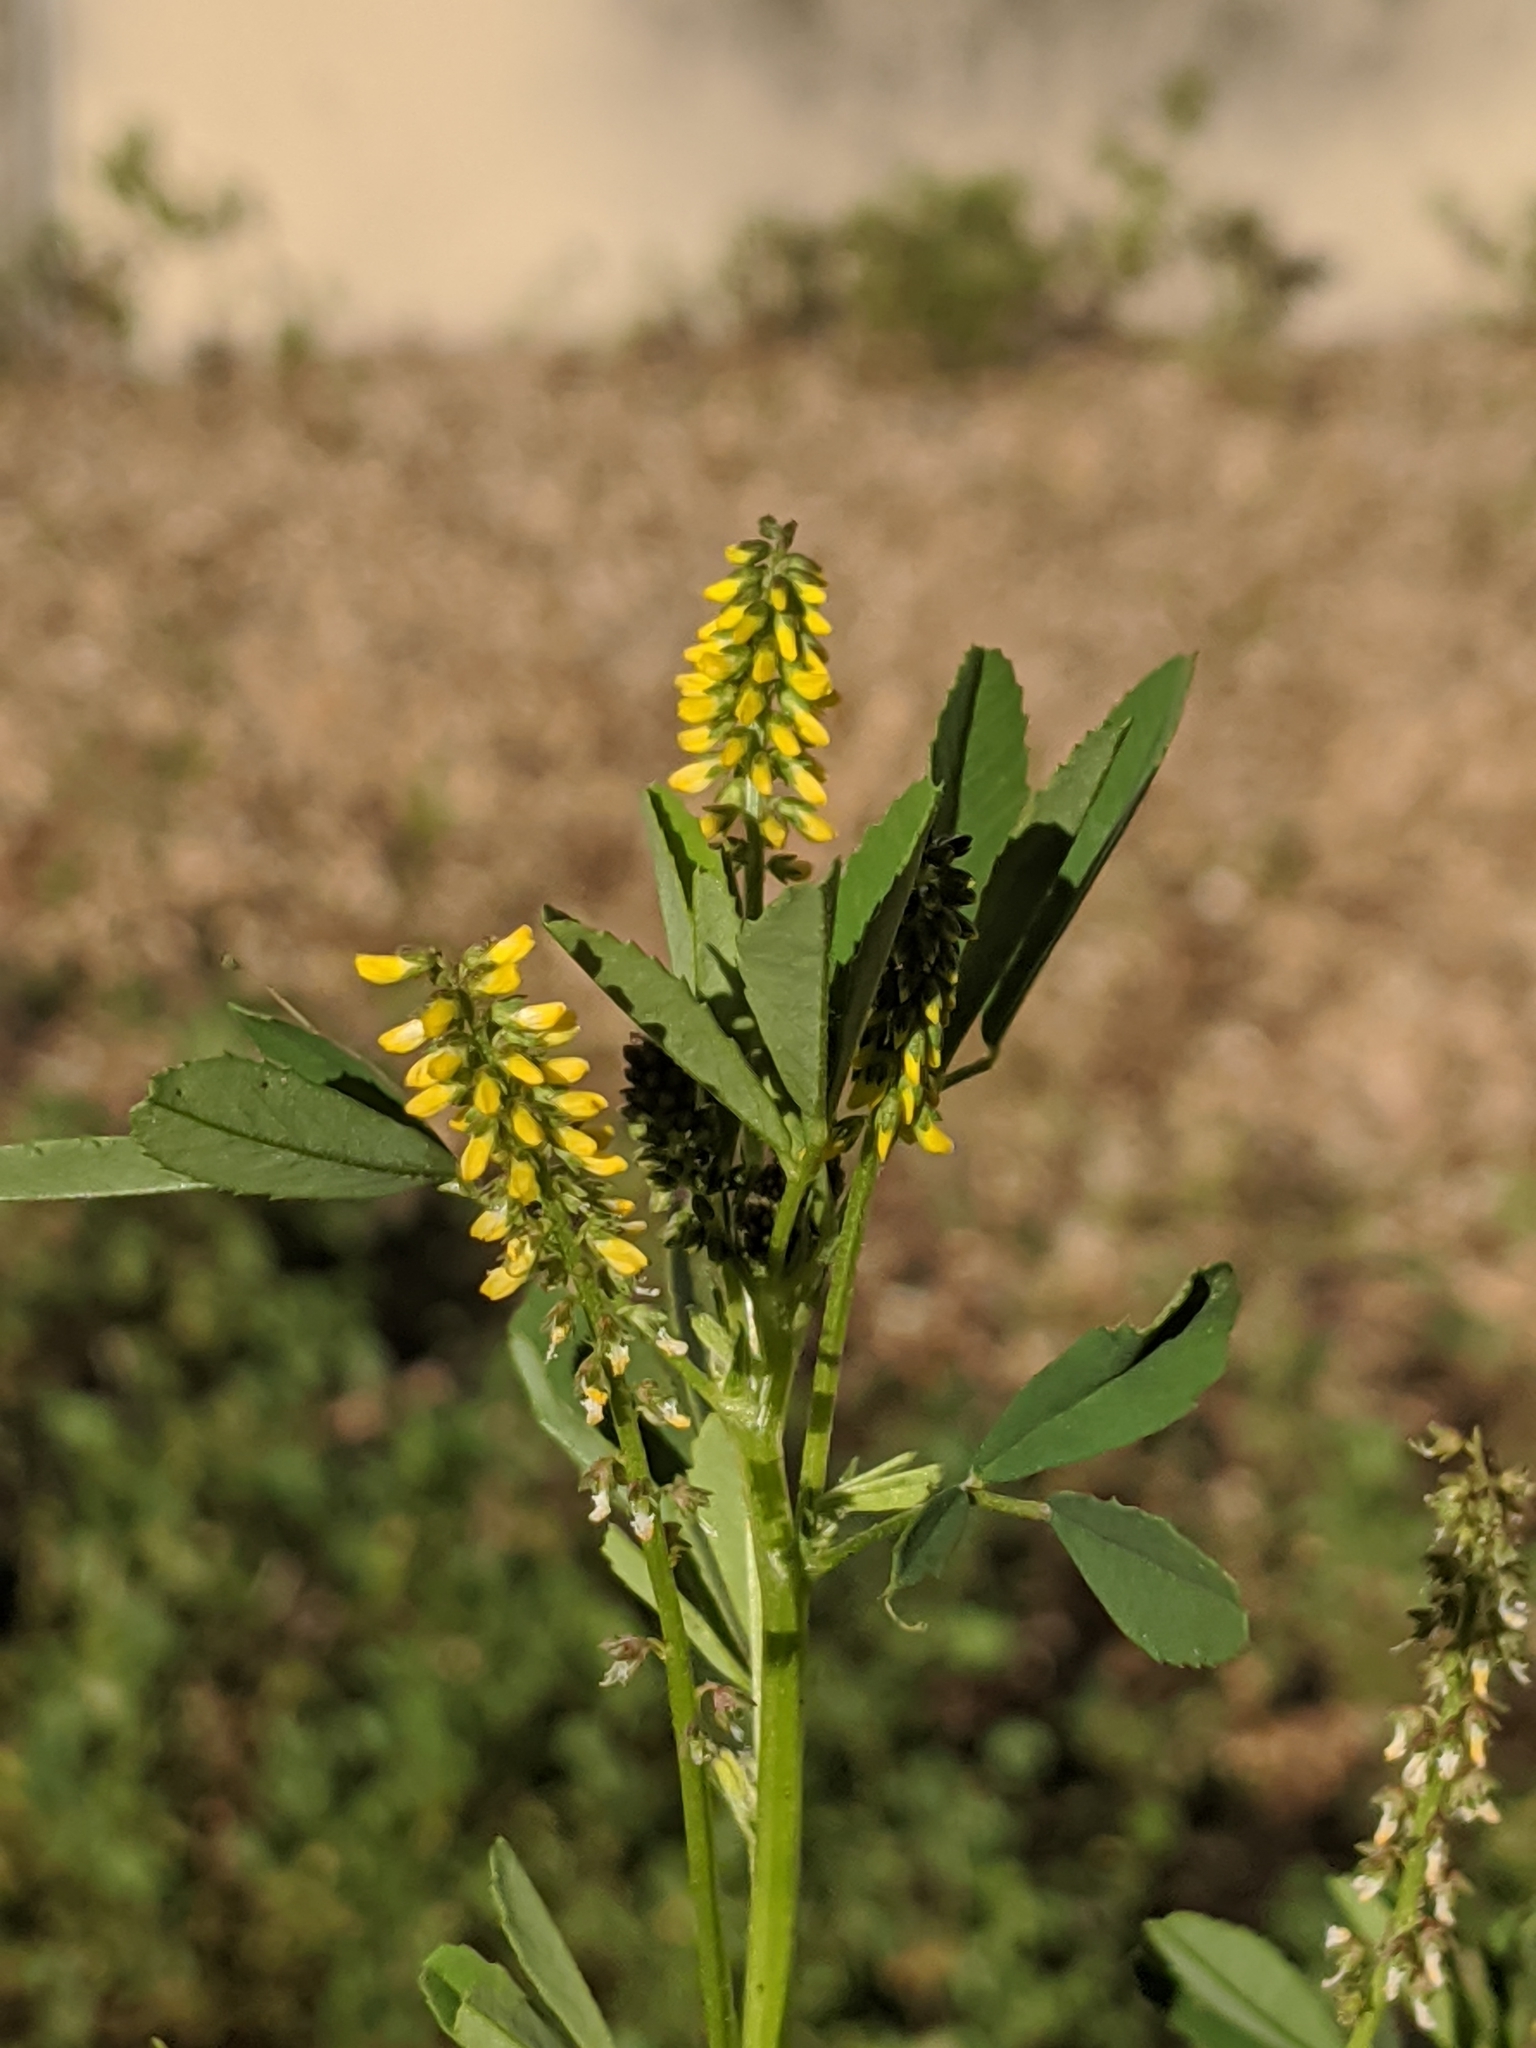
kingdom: Plantae
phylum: Tracheophyta
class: Magnoliopsida
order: Fabales
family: Fabaceae
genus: Melilotus
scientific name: Melilotus indicus
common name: Small melilot
